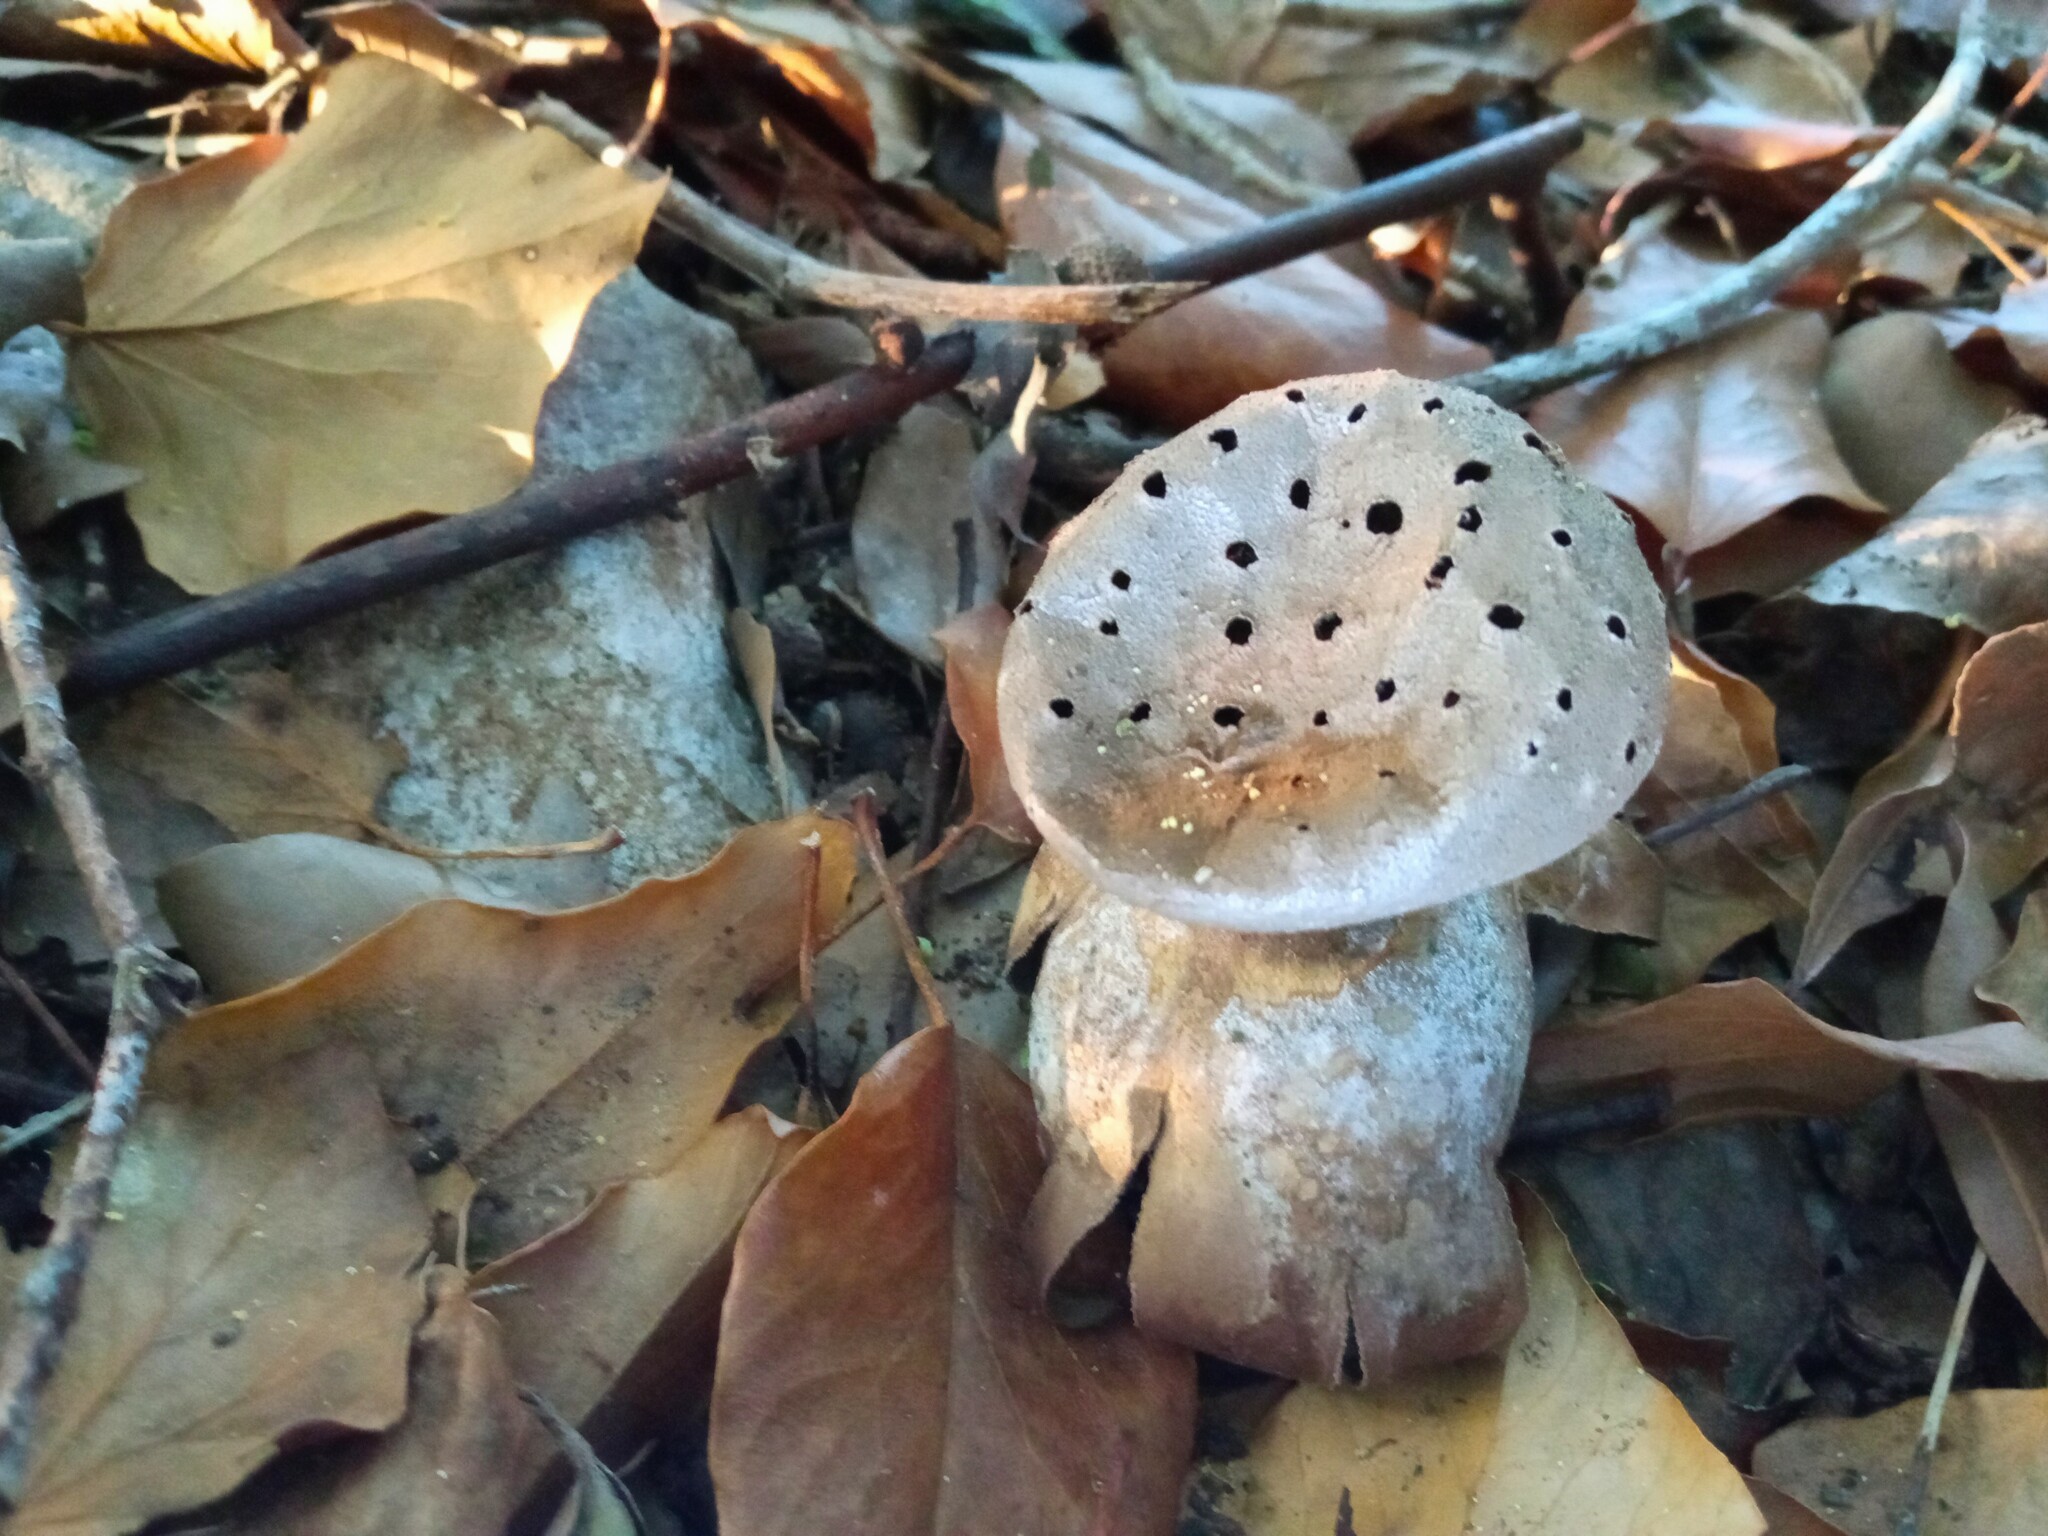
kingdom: Fungi
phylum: Basidiomycota
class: Agaricomycetes
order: Geastrales
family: Geastraceae
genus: Myriostoma
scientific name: Myriostoma coliforme
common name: Pepper pot
